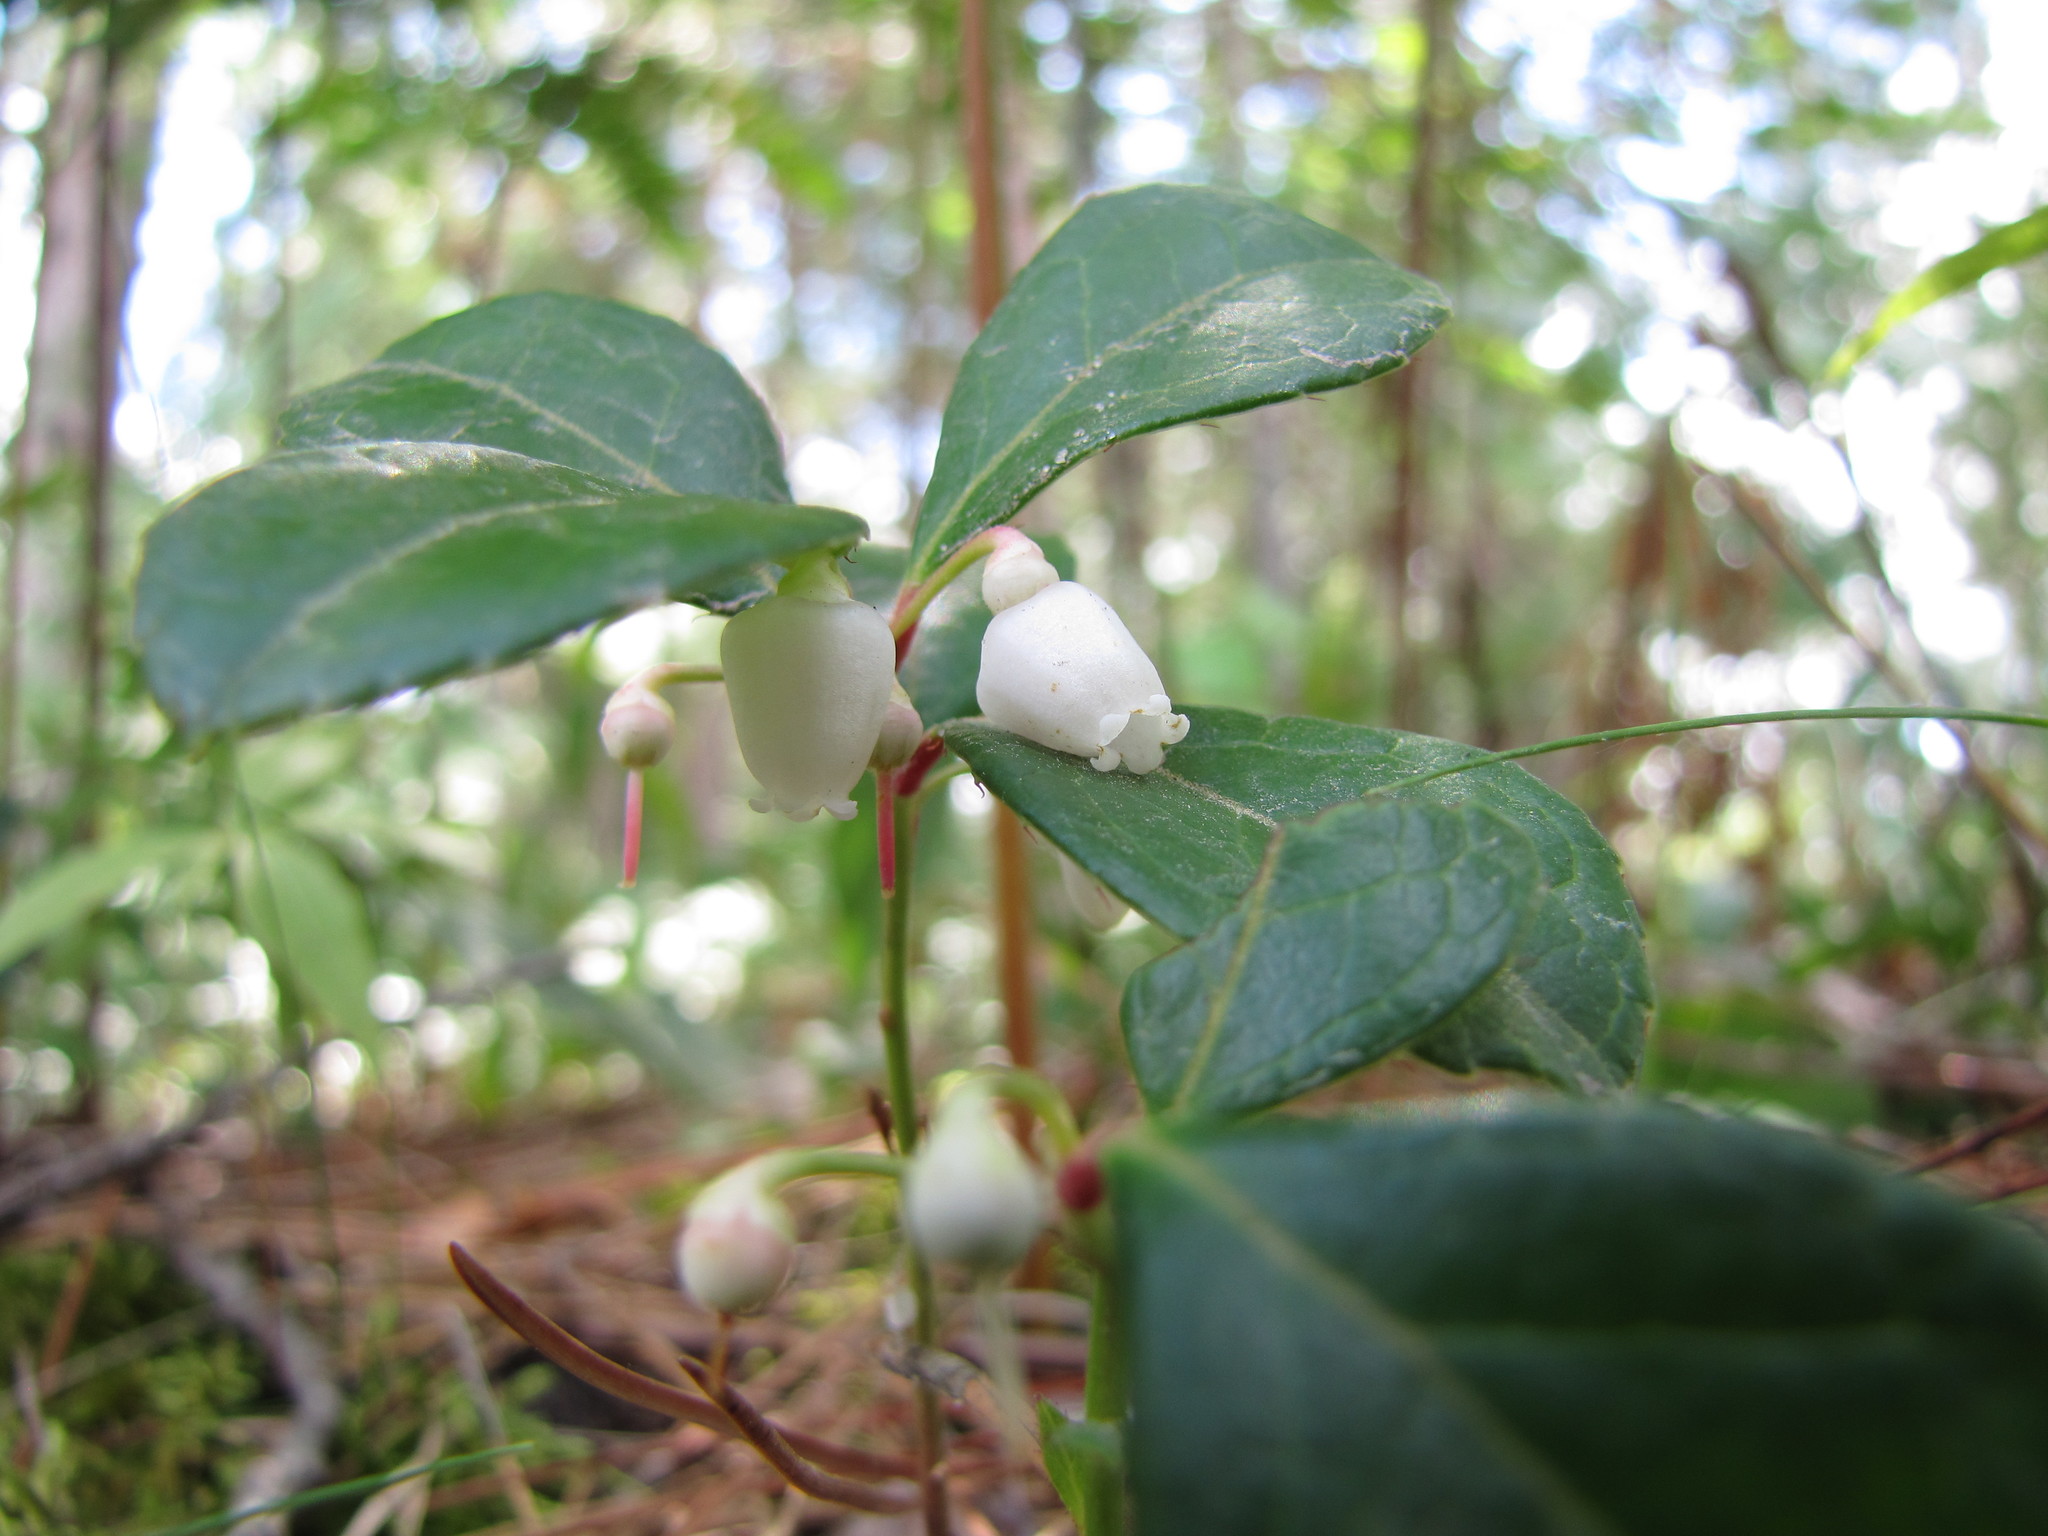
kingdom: Plantae
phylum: Tracheophyta
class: Magnoliopsida
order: Ericales
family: Ericaceae
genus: Gaultheria
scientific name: Gaultheria procumbens
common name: Checkerberry
